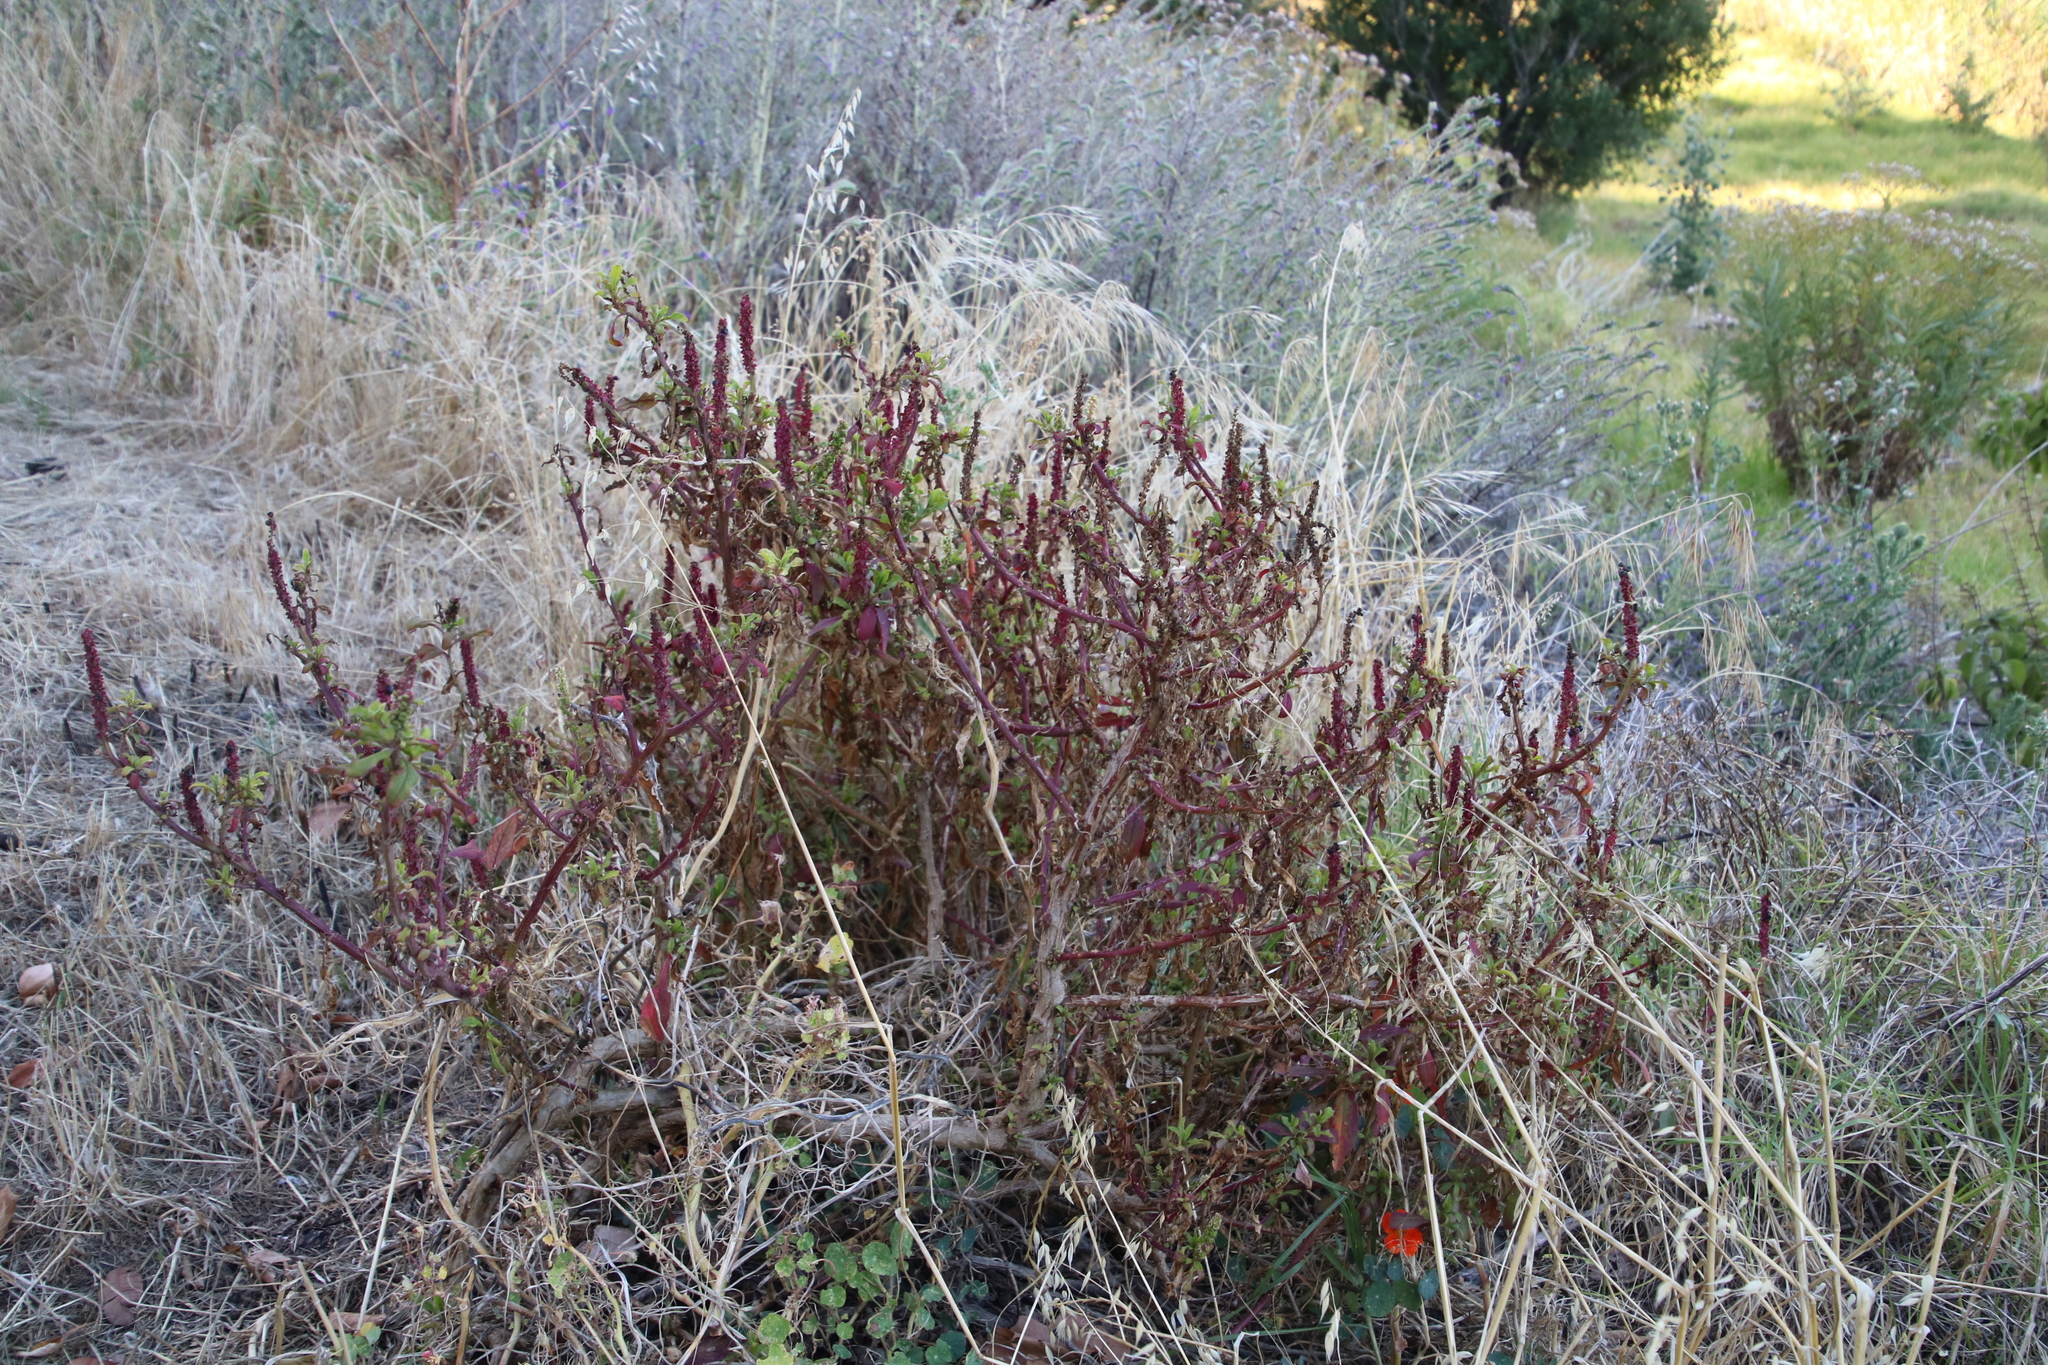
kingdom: Plantae
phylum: Tracheophyta
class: Magnoliopsida
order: Caryophyllales
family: Phytolaccaceae
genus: Phytolacca
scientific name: Phytolacca icosandra
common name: Button pokeweed
